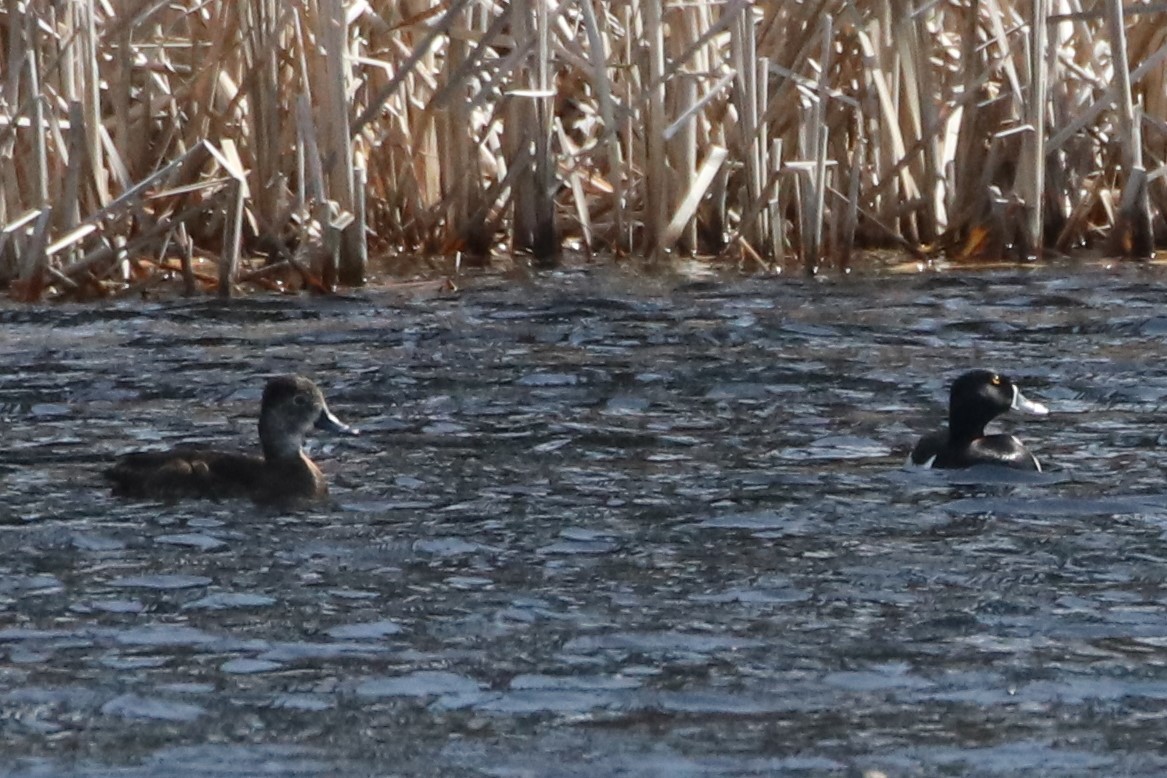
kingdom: Animalia
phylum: Chordata
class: Aves
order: Anseriformes
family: Anatidae
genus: Aythya
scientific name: Aythya collaris
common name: Ring-necked duck
